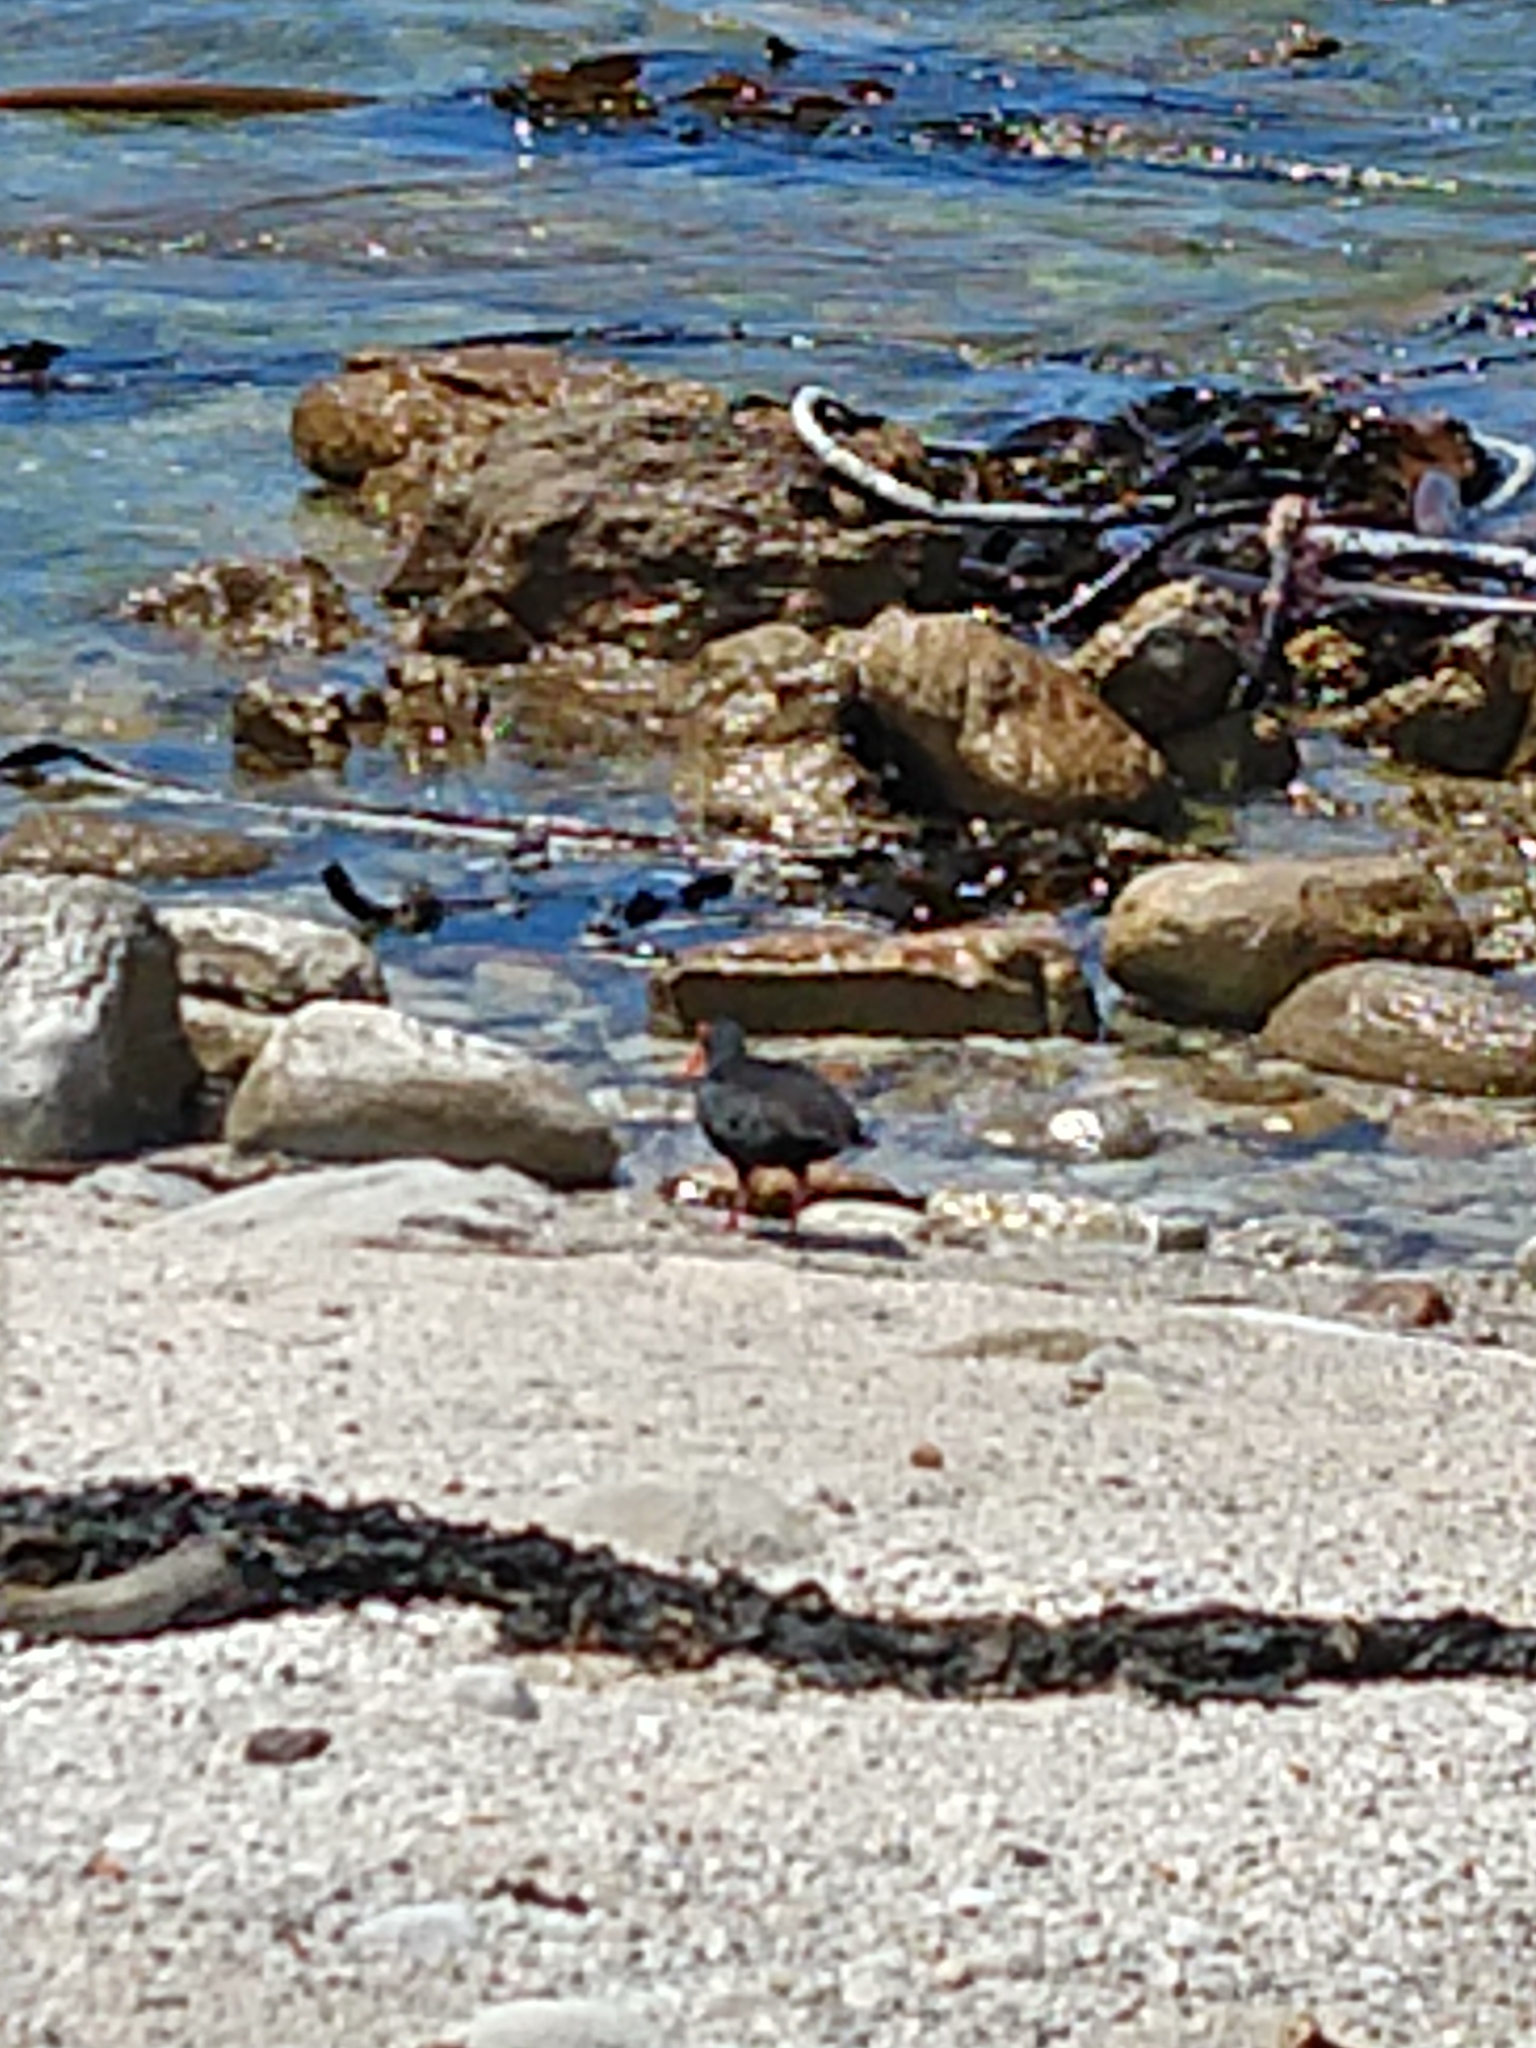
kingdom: Animalia
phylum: Chordata
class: Aves
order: Charadriiformes
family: Haematopodidae
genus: Haematopus
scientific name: Haematopus moquini
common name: African oystercatcher
